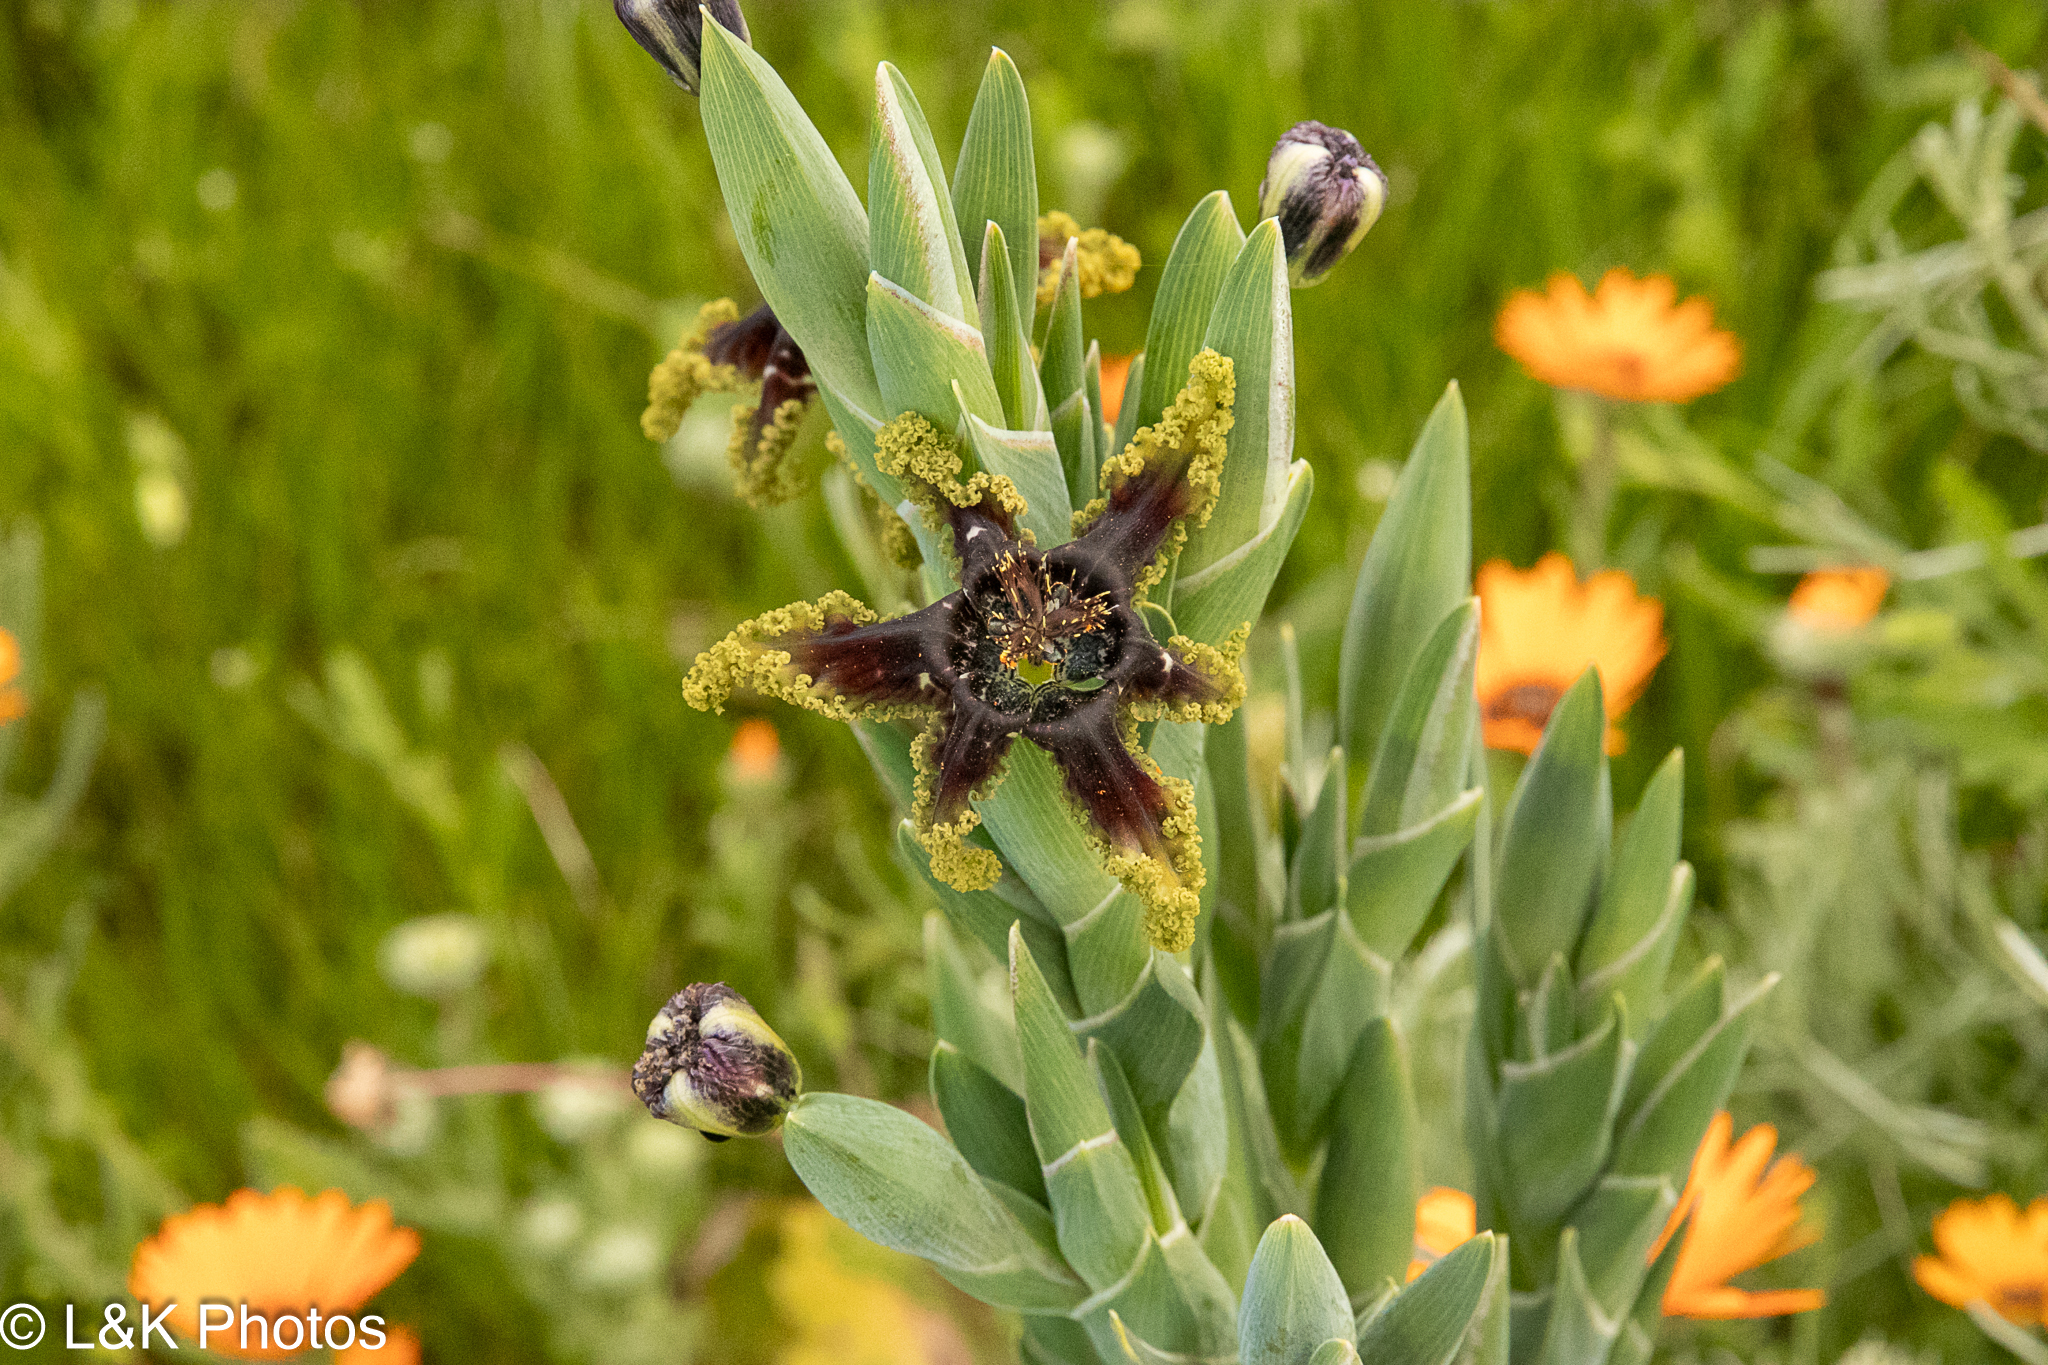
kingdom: Plantae
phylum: Tracheophyta
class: Liliopsida
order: Asparagales
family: Iridaceae
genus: Ferraria
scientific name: Ferraria crispa
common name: Black-flag
